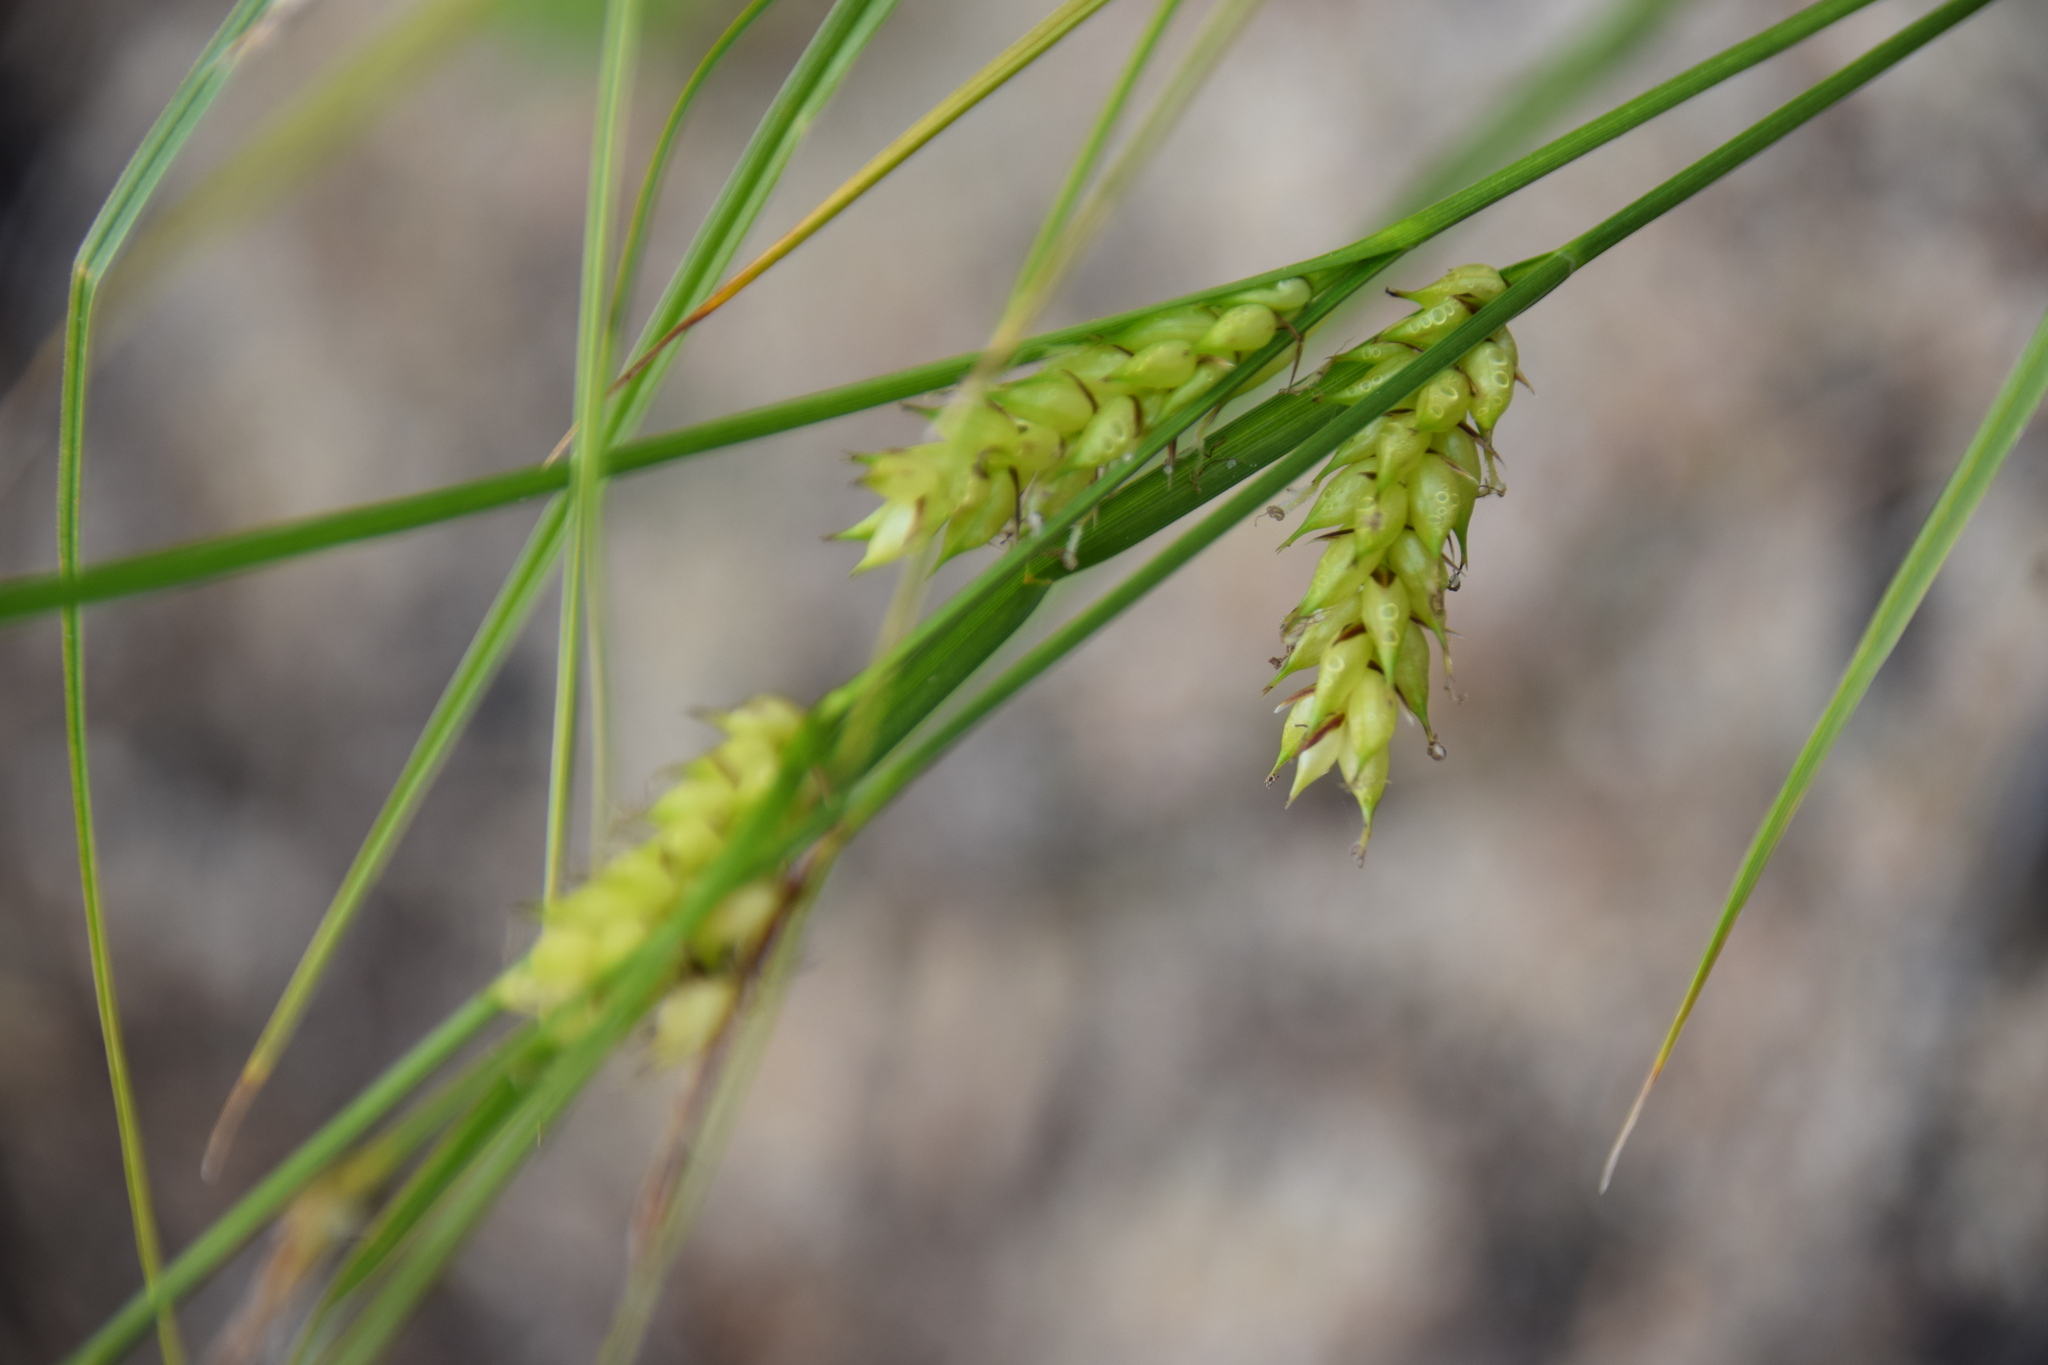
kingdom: Plantae
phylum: Tracheophyta
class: Liliopsida
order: Poales
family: Cyperaceae
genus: Carex
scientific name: Carex vesicaria
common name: Bladder-sedge
